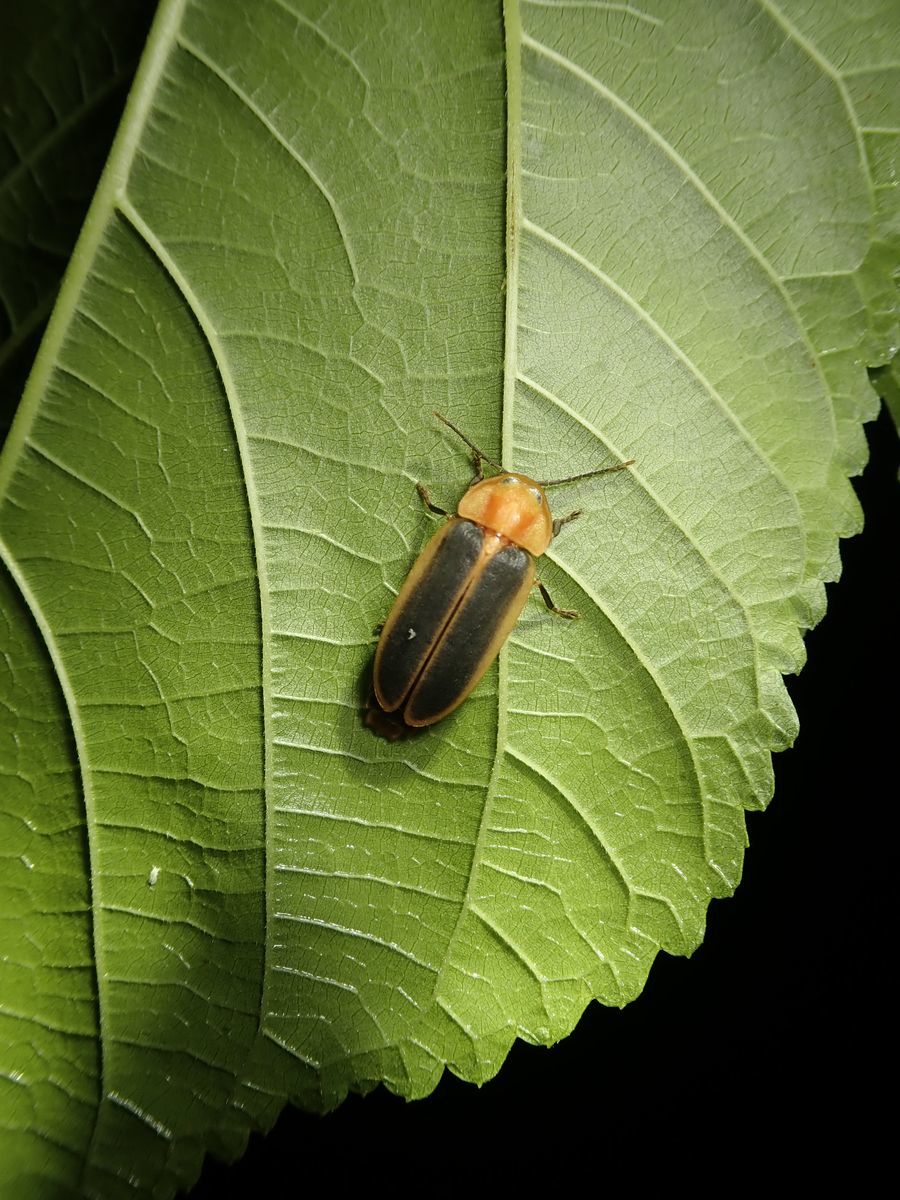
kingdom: Animalia
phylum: Arthropoda
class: Insecta
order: Coleoptera
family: Lampyridae
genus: Pyrocoelia
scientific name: Pyrocoelia analis
